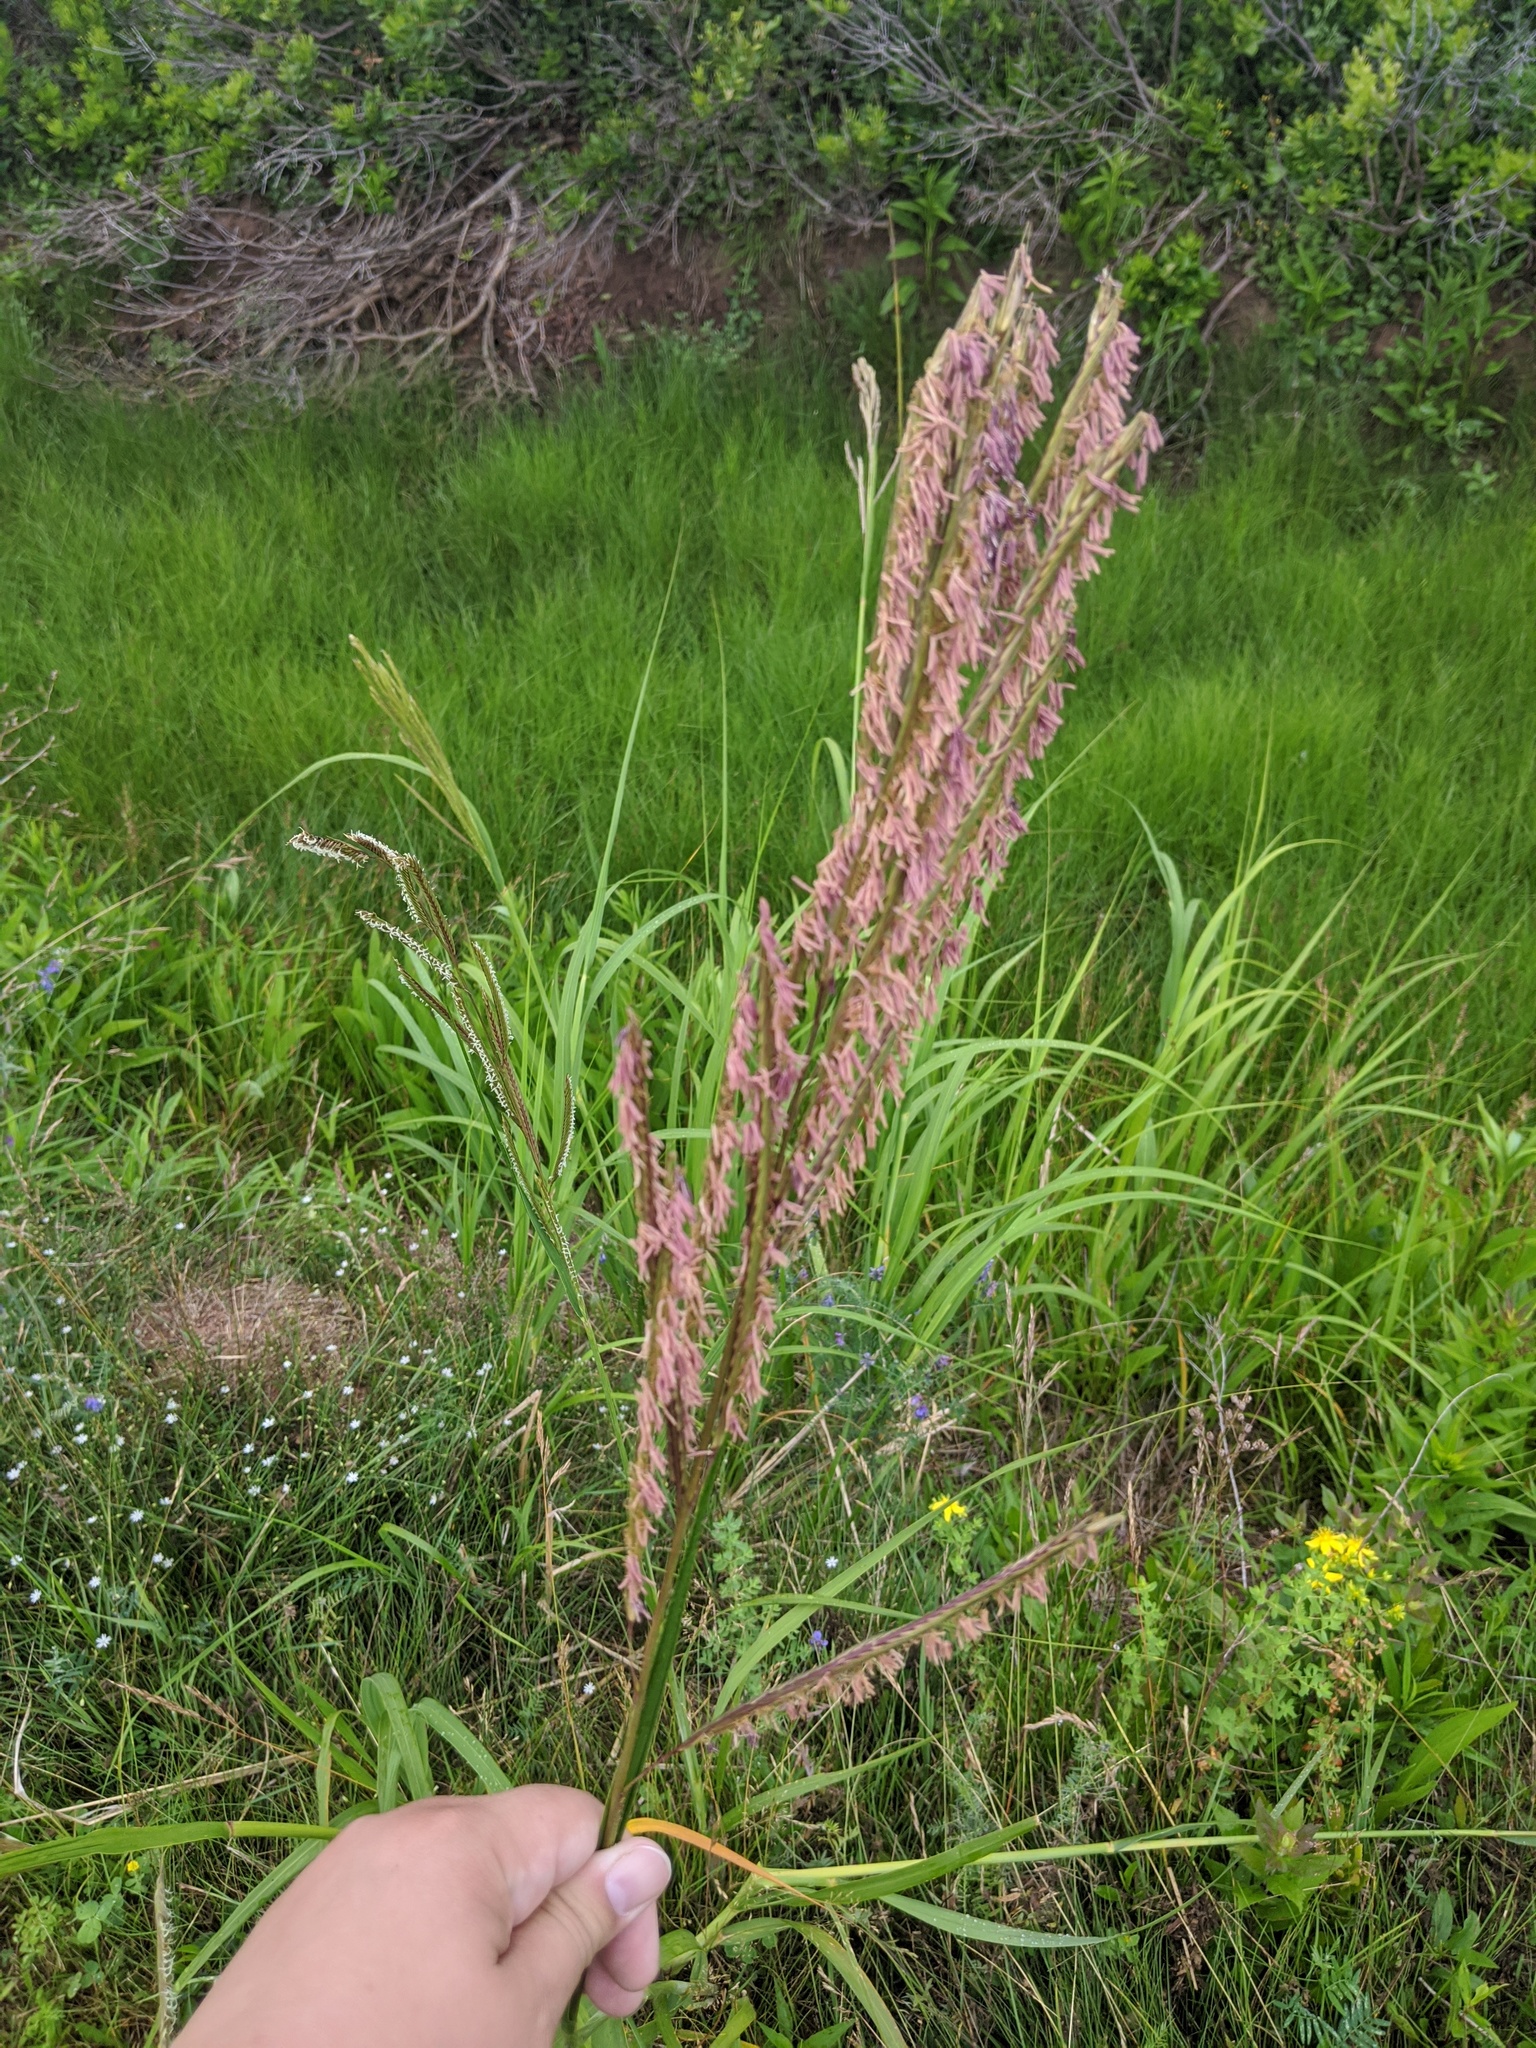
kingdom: Plantae
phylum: Tracheophyta
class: Liliopsida
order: Poales
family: Poaceae
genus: Sporobolus
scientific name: Sporobolus michauxianus
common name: Freshwater cordgrass
